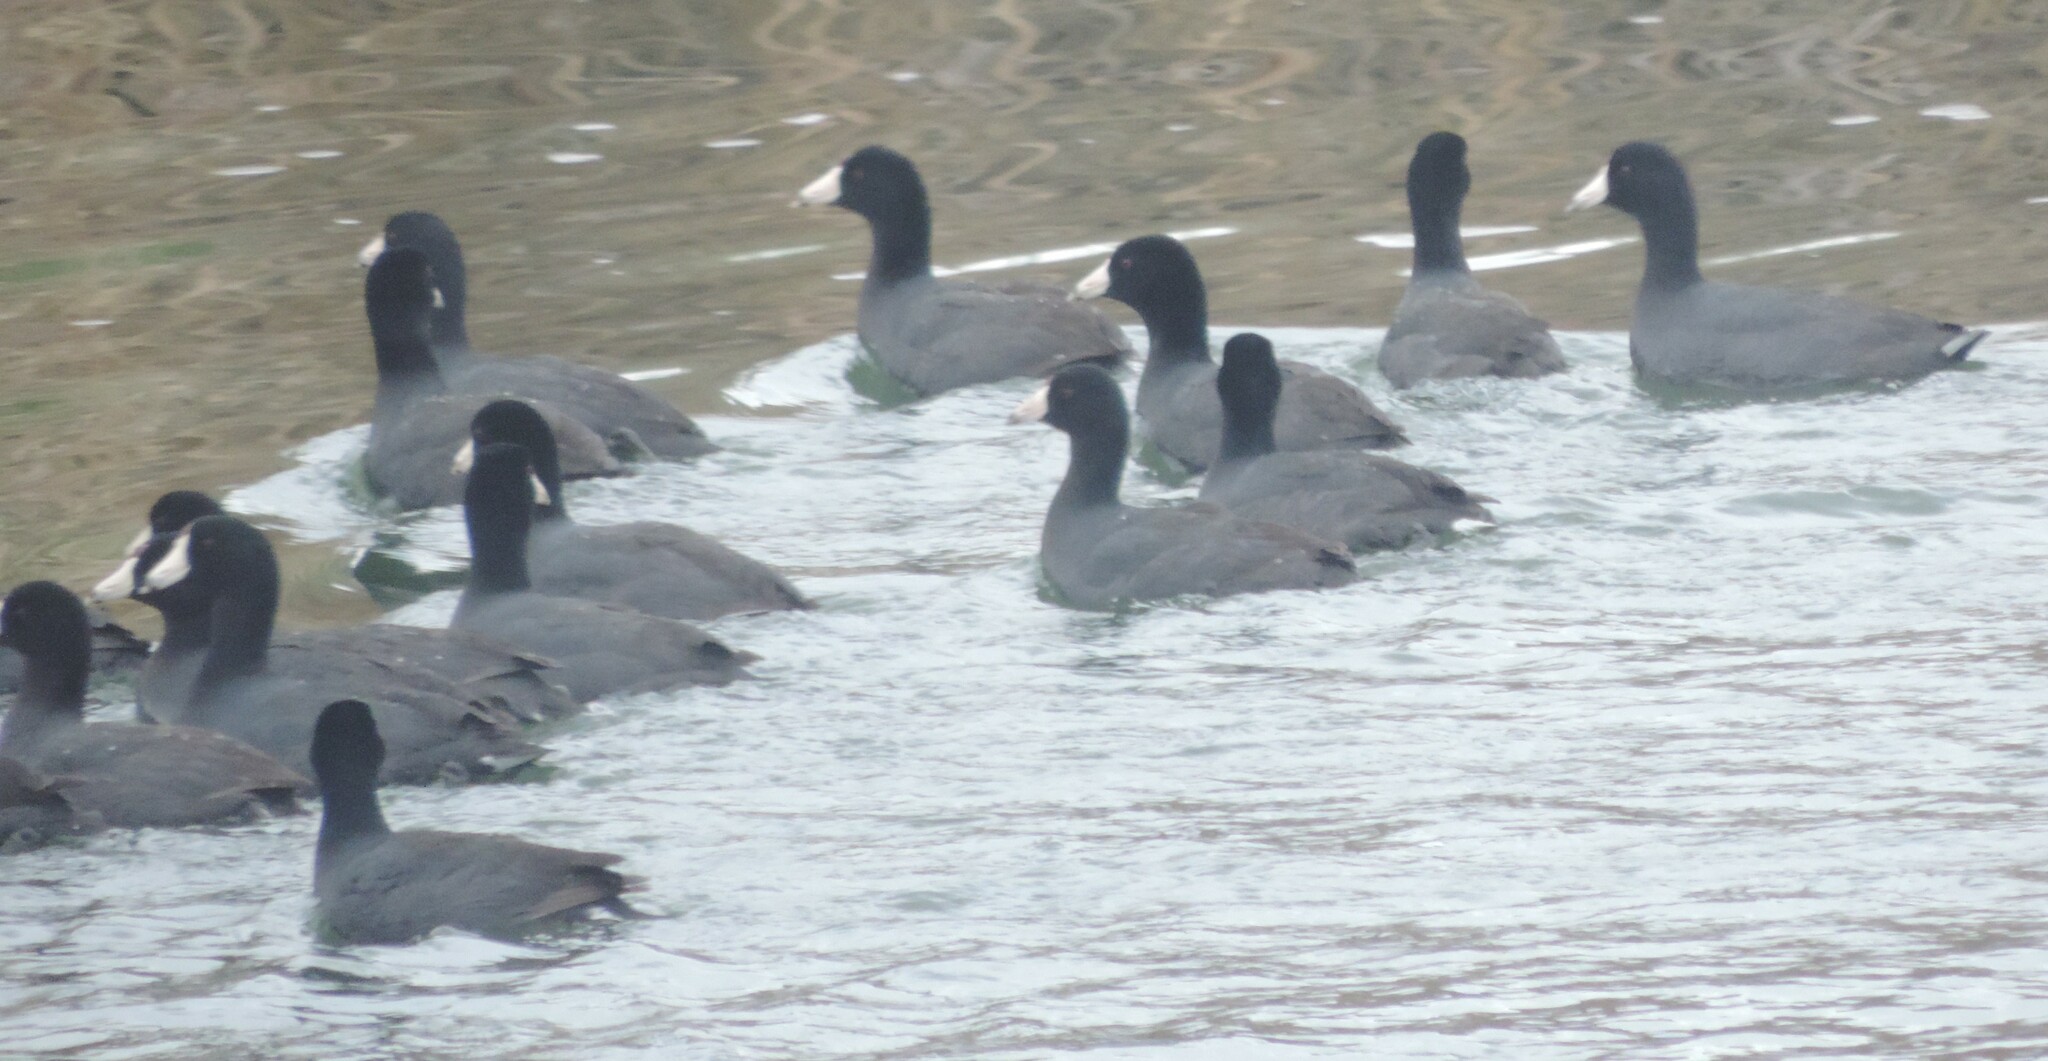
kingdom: Animalia
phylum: Chordata
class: Aves
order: Gruiformes
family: Rallidae
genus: Fulica
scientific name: Fulica americana
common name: American coot
